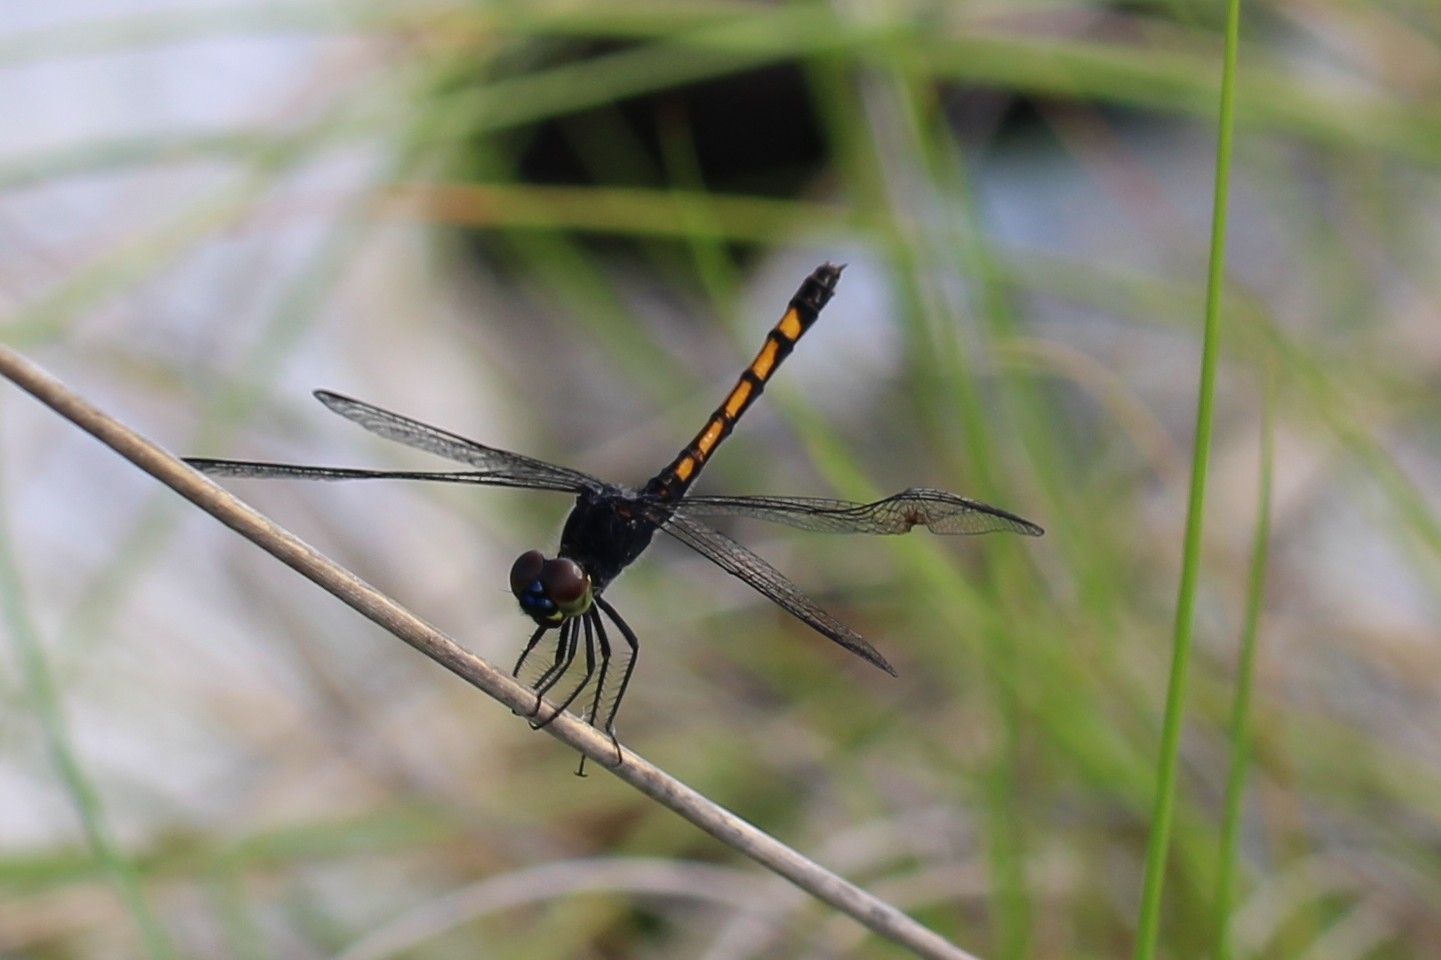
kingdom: Animalia
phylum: Arthropoda
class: Insecta
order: Odonata
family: Libellulidae
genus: Erythrodiplax
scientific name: Erythrodiplax berenice
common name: Seaside dragonlet
